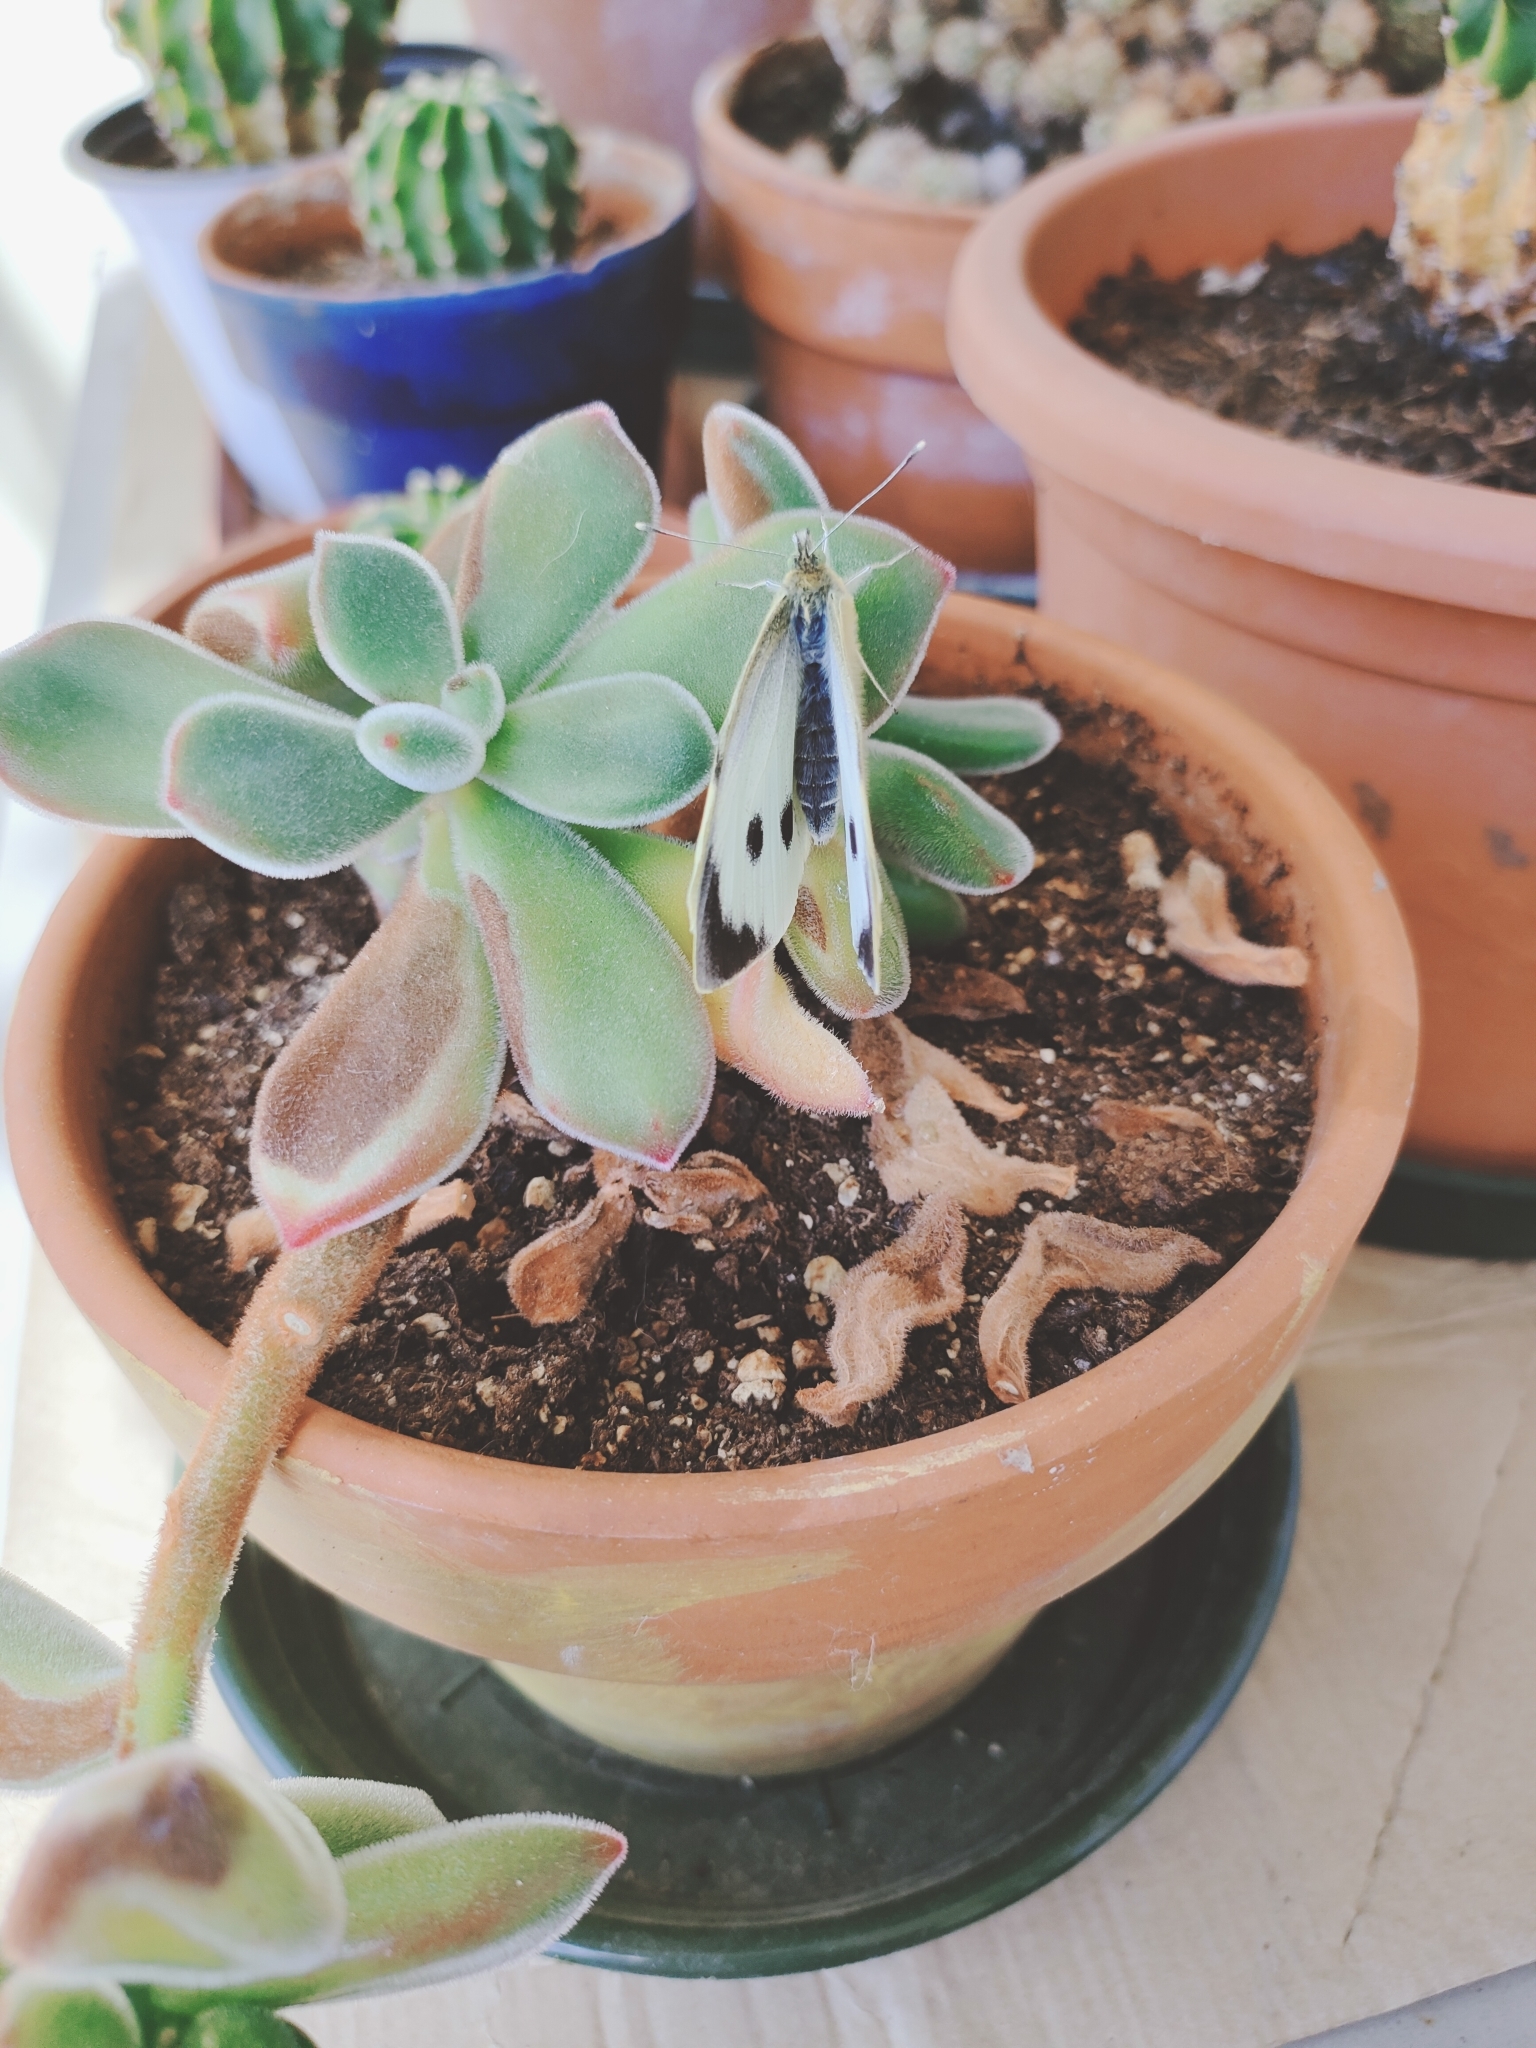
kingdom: Animalia
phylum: Arthropoda
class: Insecta
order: Lepidoptera
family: Pieridae
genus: Pieris
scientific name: Pieris brassicae
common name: Large white
